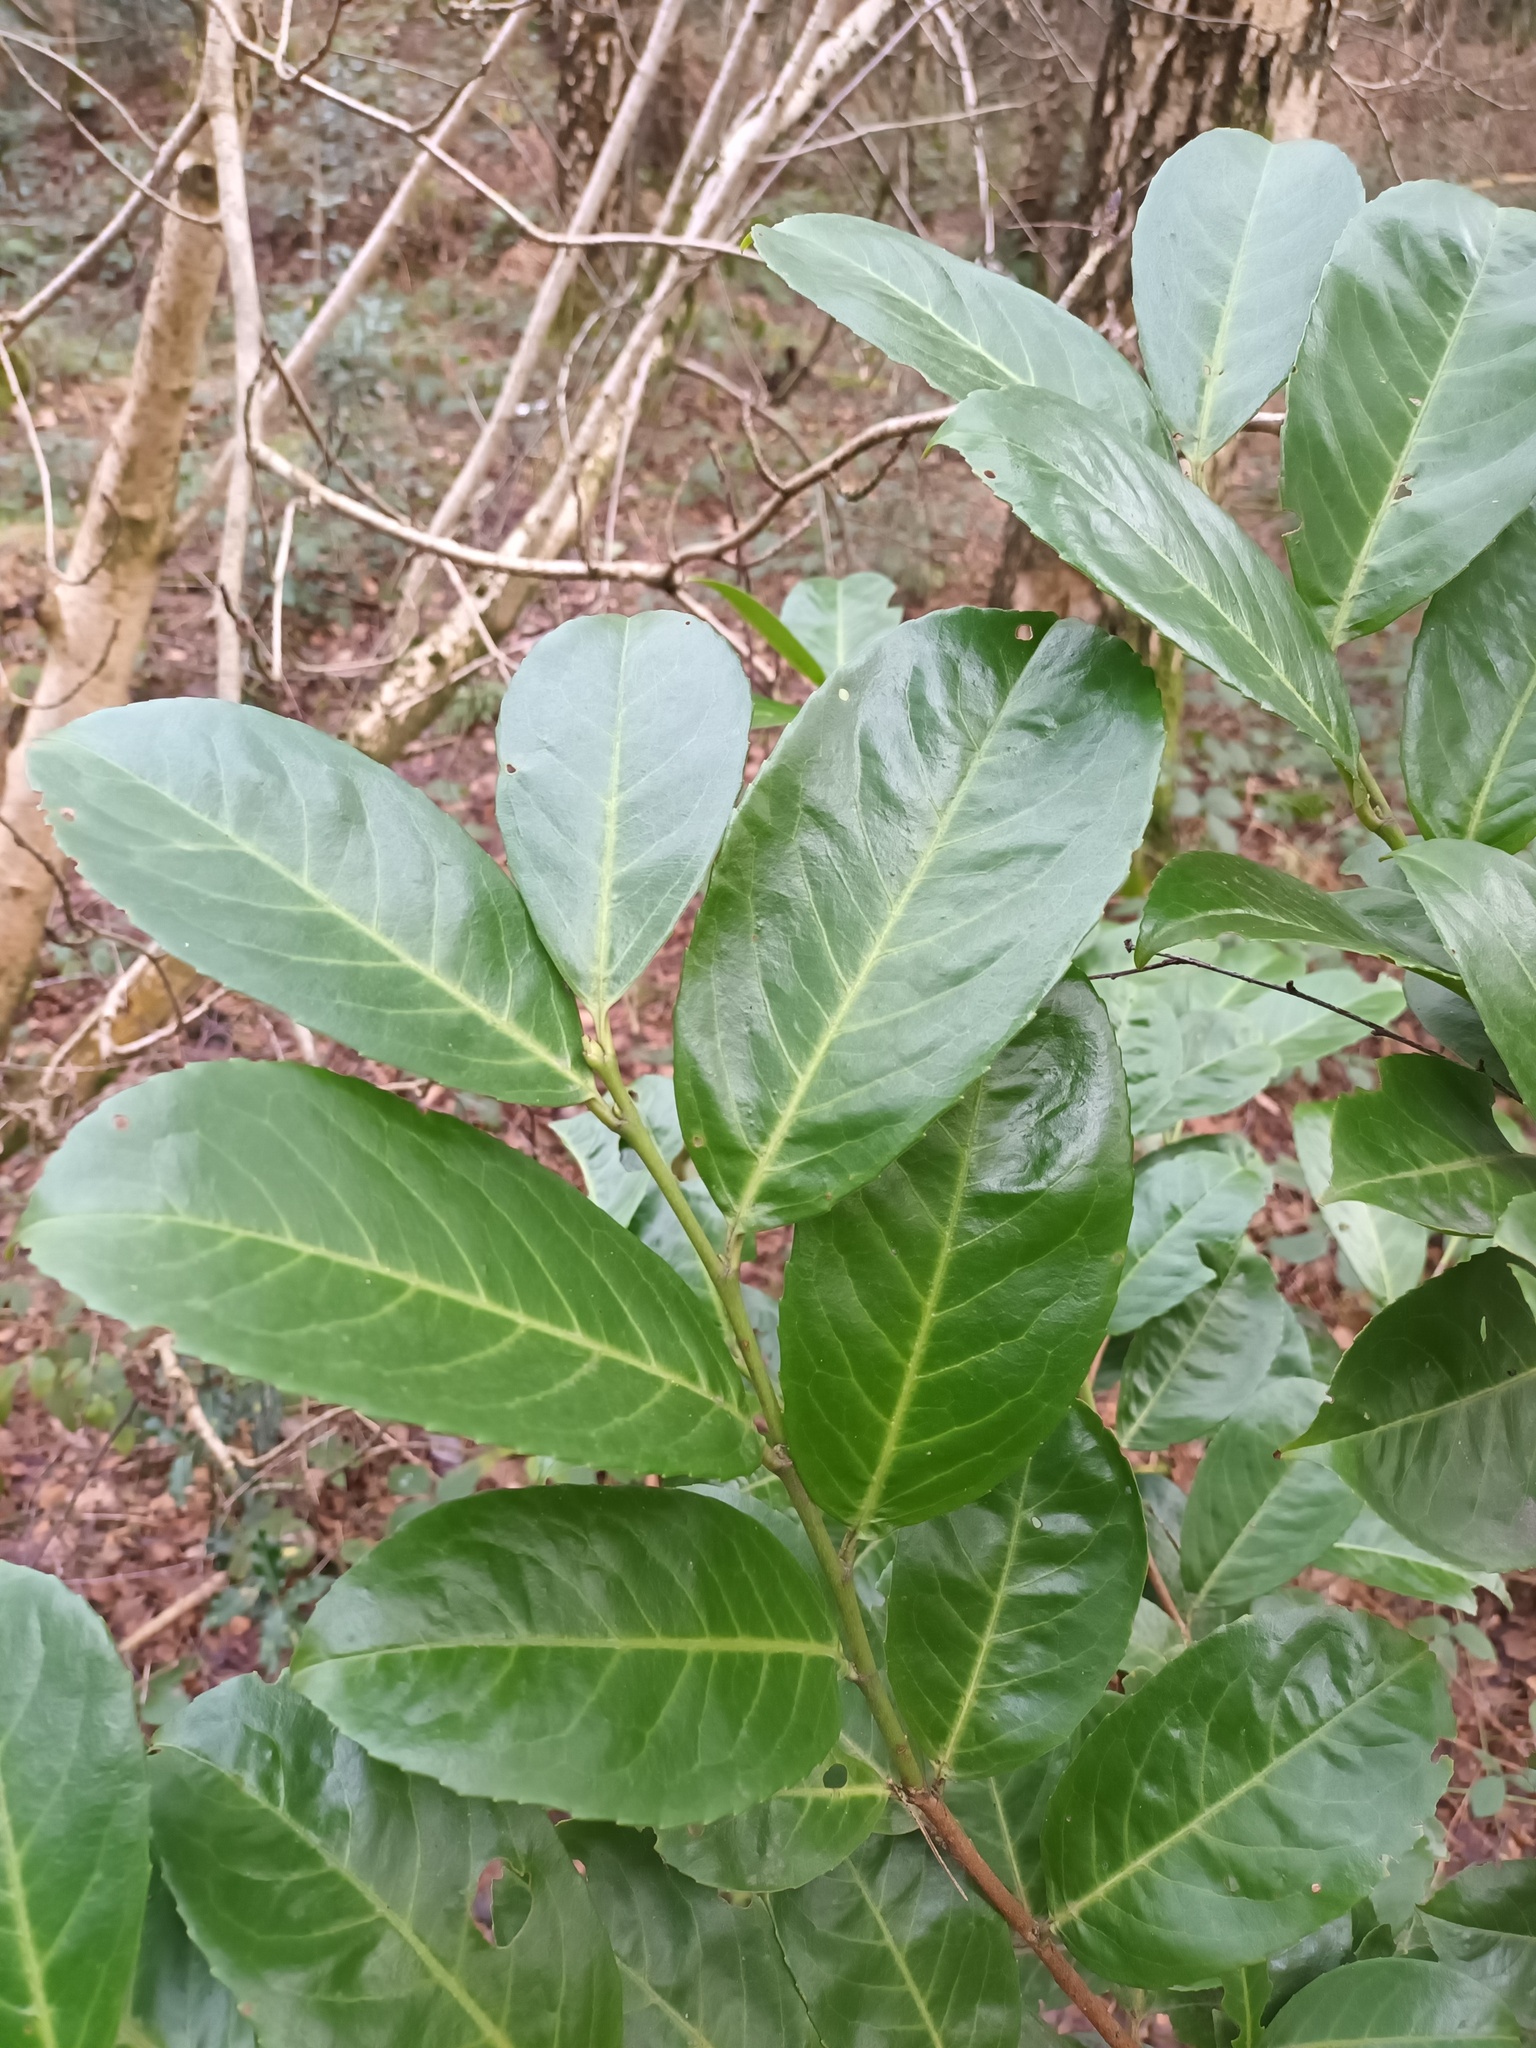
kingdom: Plantae
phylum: Tracheophyta
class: Magnoliopsida
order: Rosales
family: Rosaceae
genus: Prunus
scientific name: Prunus laurocerasus
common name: Cherry laurel
